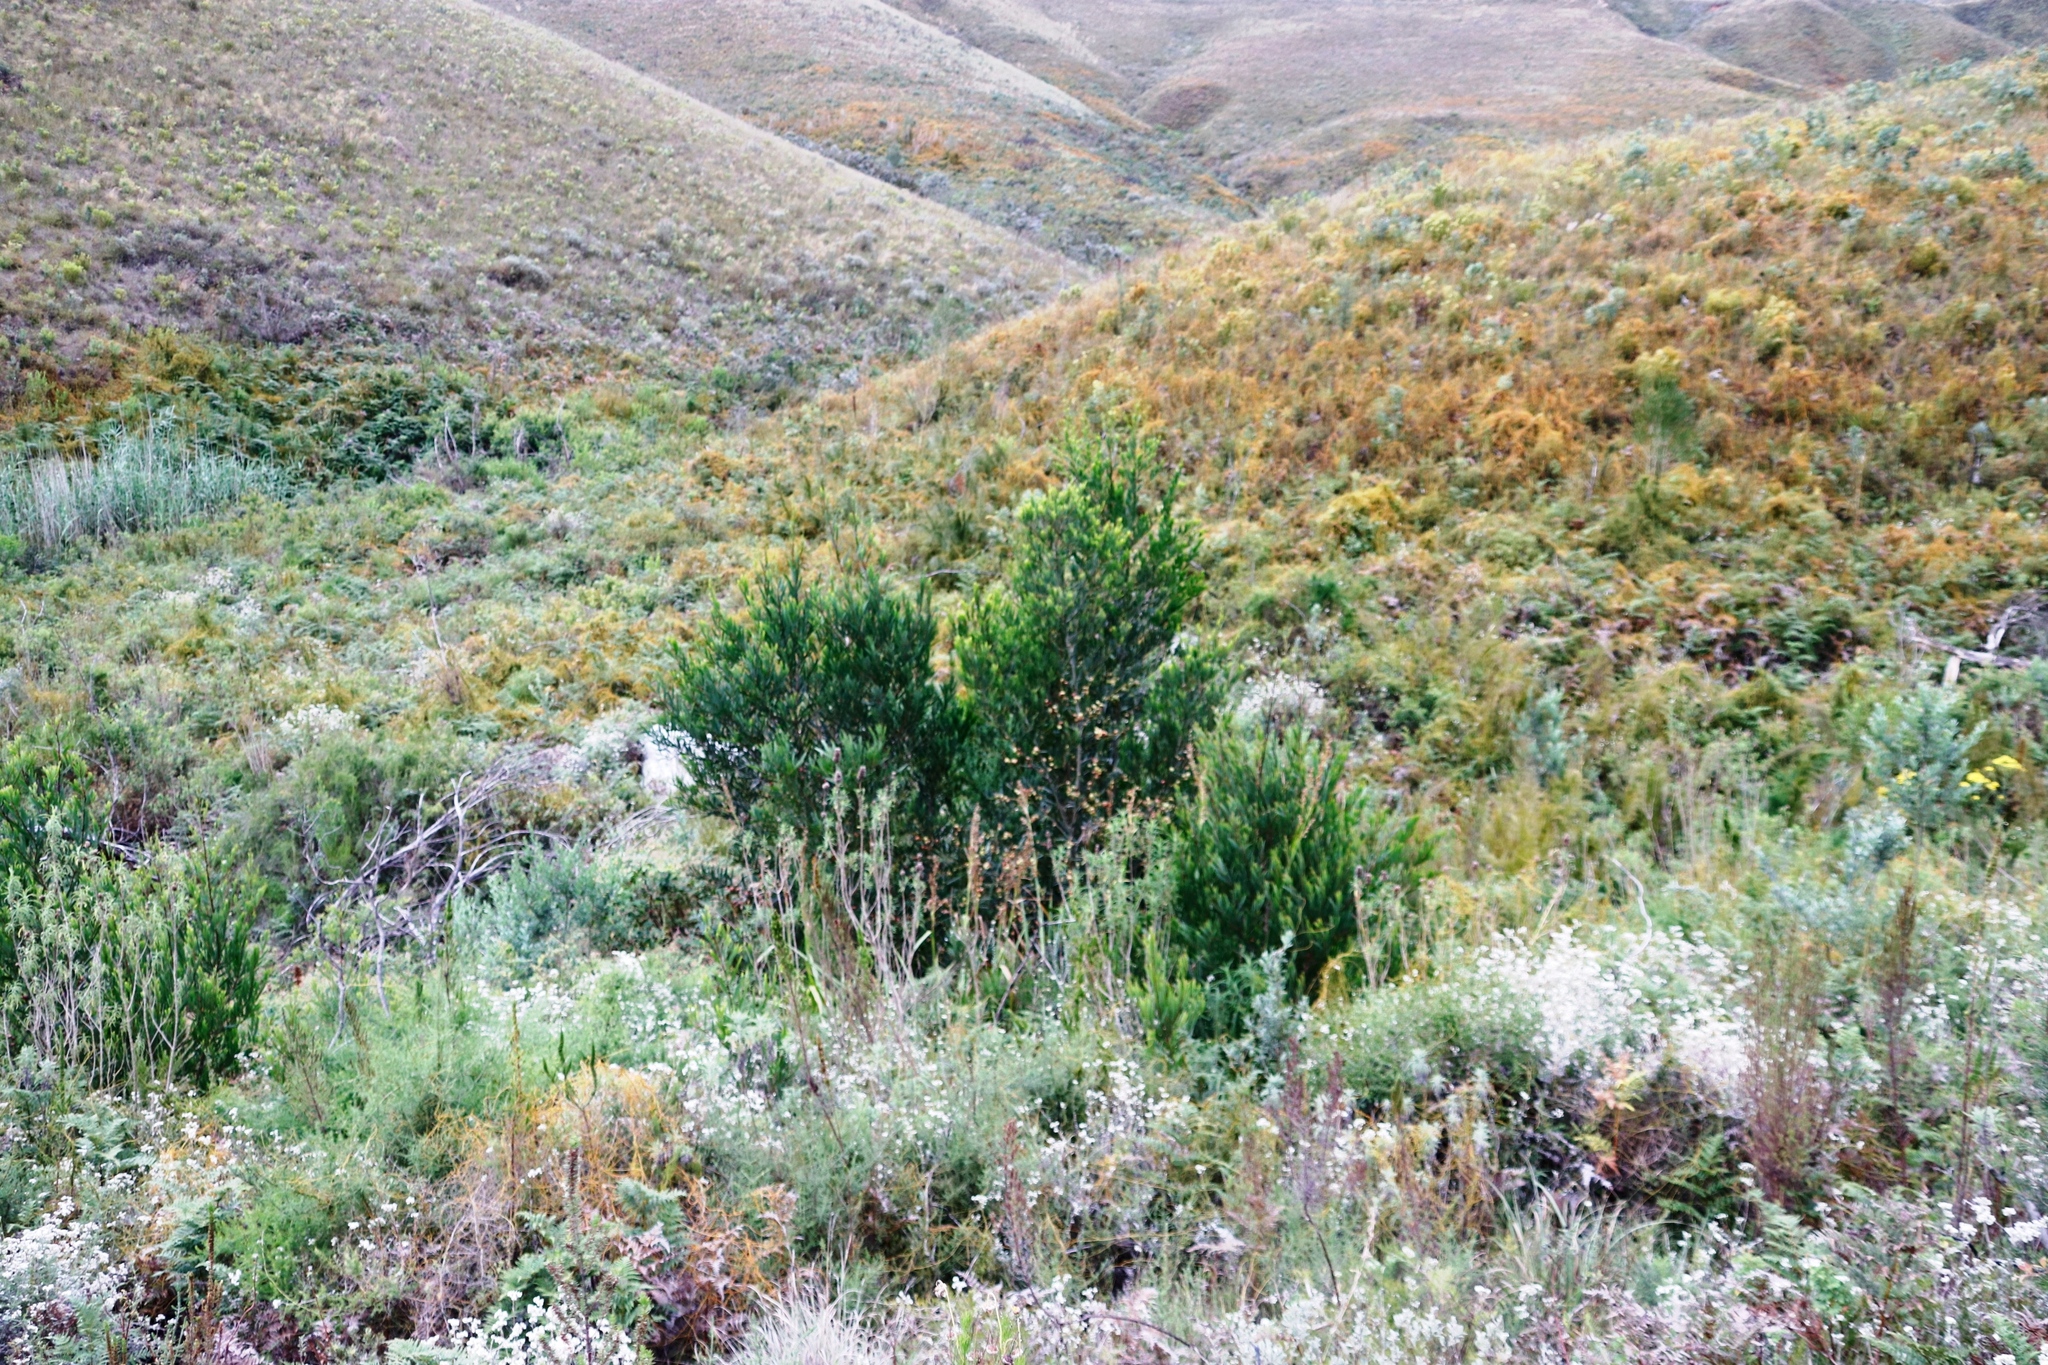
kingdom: Plantae
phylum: Tracheophyta
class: Magnoliopsida
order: Fabales
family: Fabaceae
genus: Acacia
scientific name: Acacia melanoxylon
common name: Blackwood
